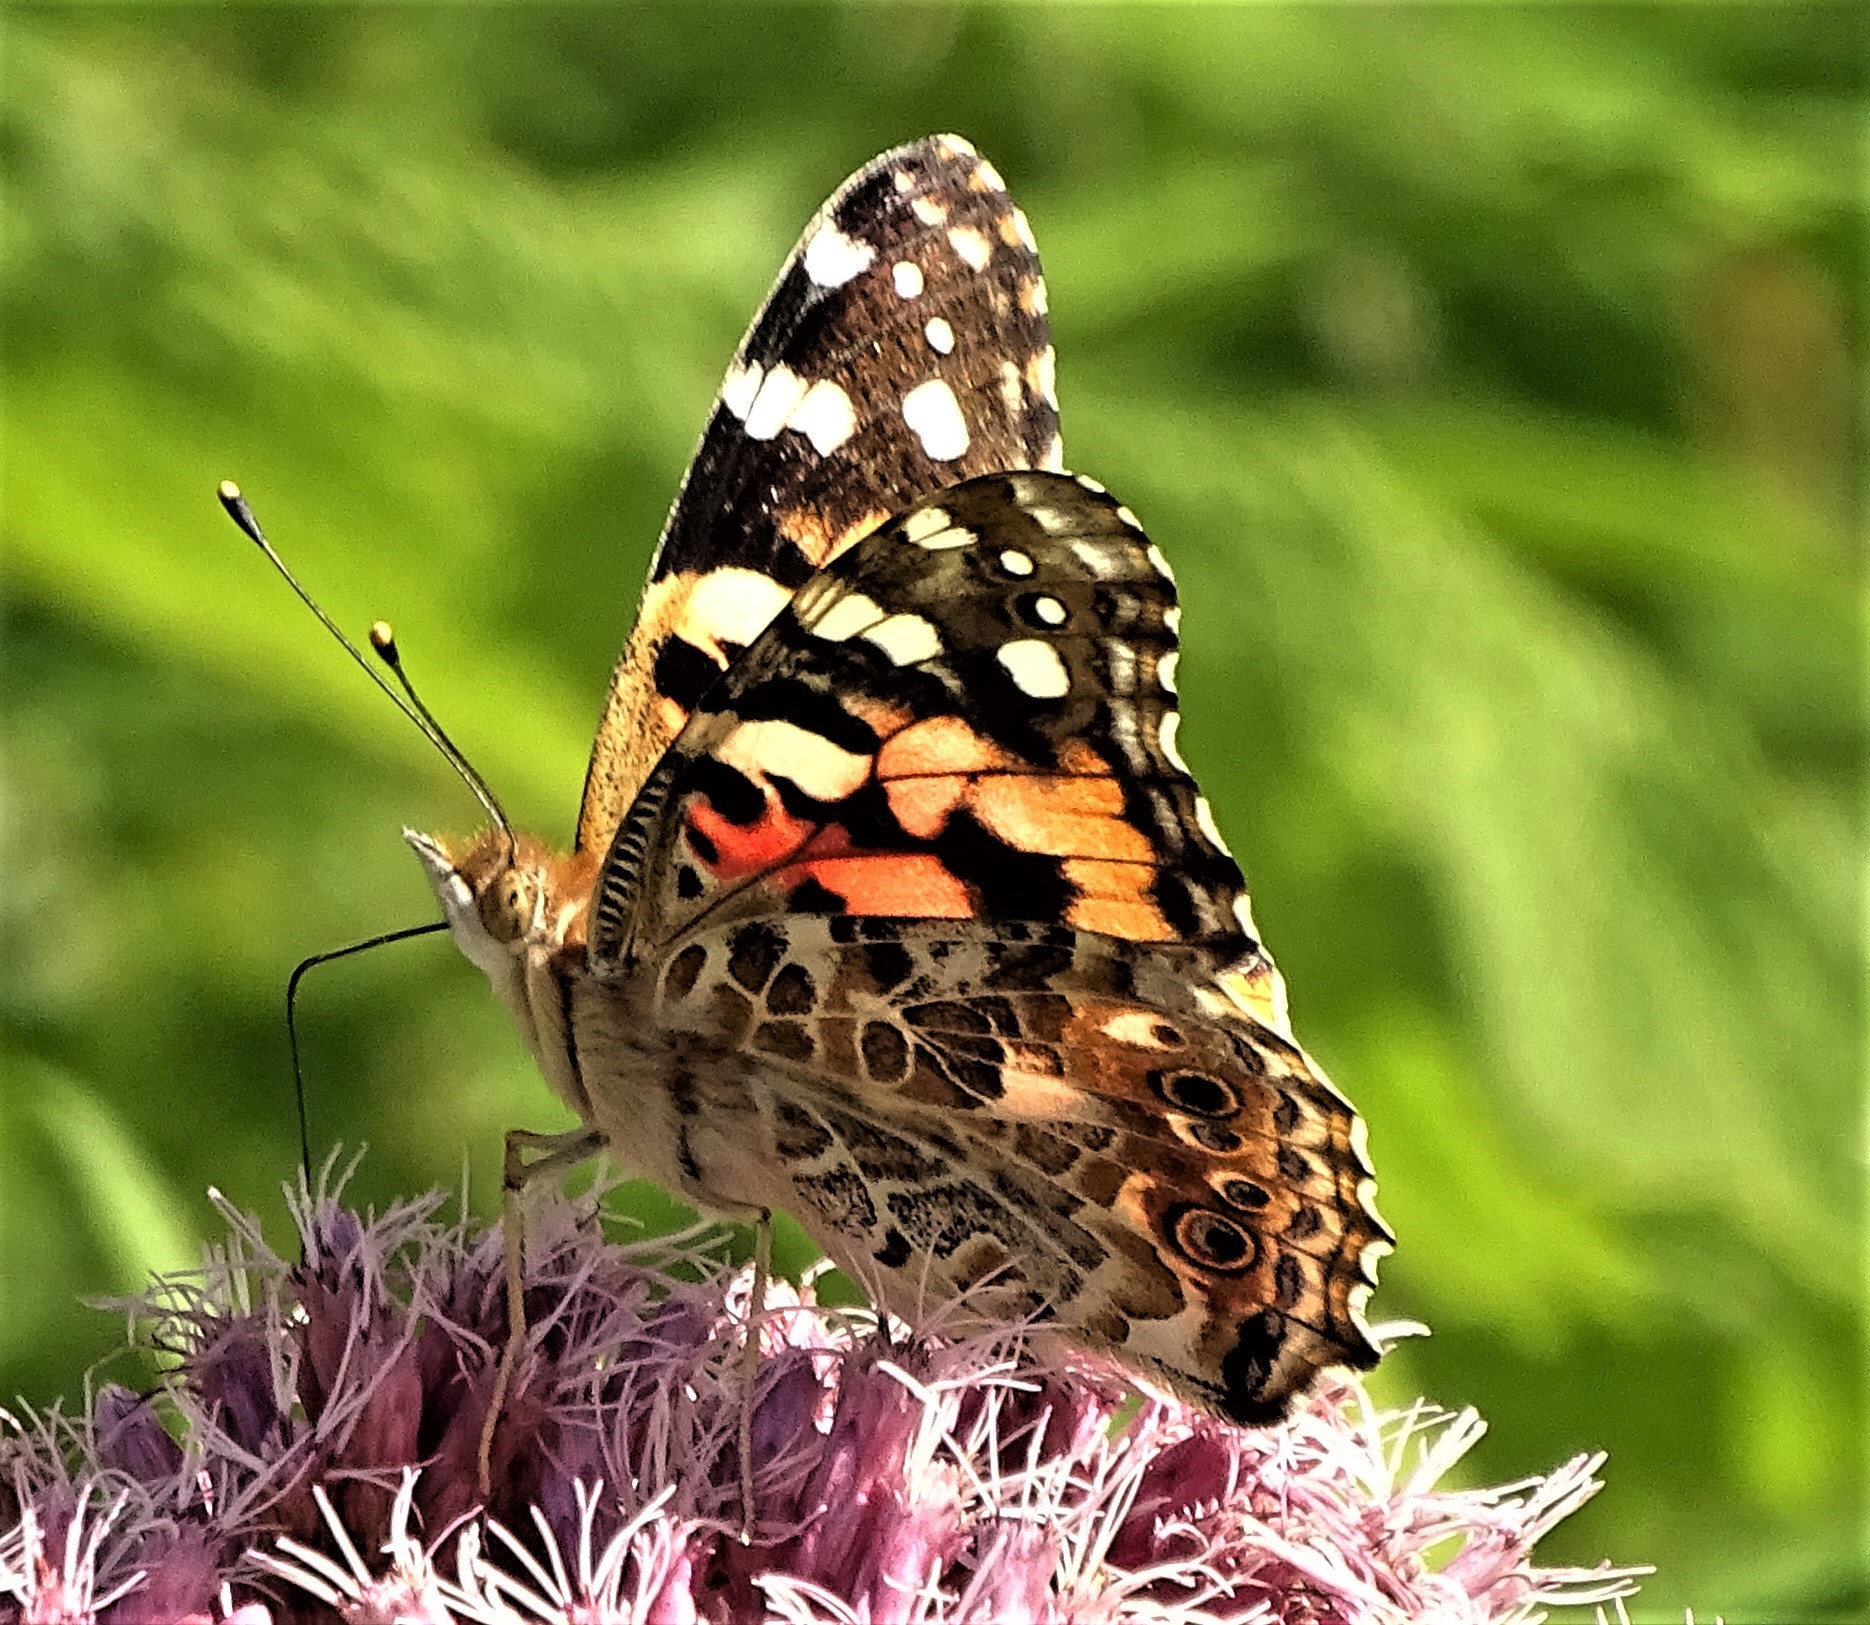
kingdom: Animalia
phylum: Arthropoda
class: Insecta
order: Lepidoptera
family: Nymphalidae
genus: Vanessa
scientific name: Vanessa cardui
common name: Painted lady
